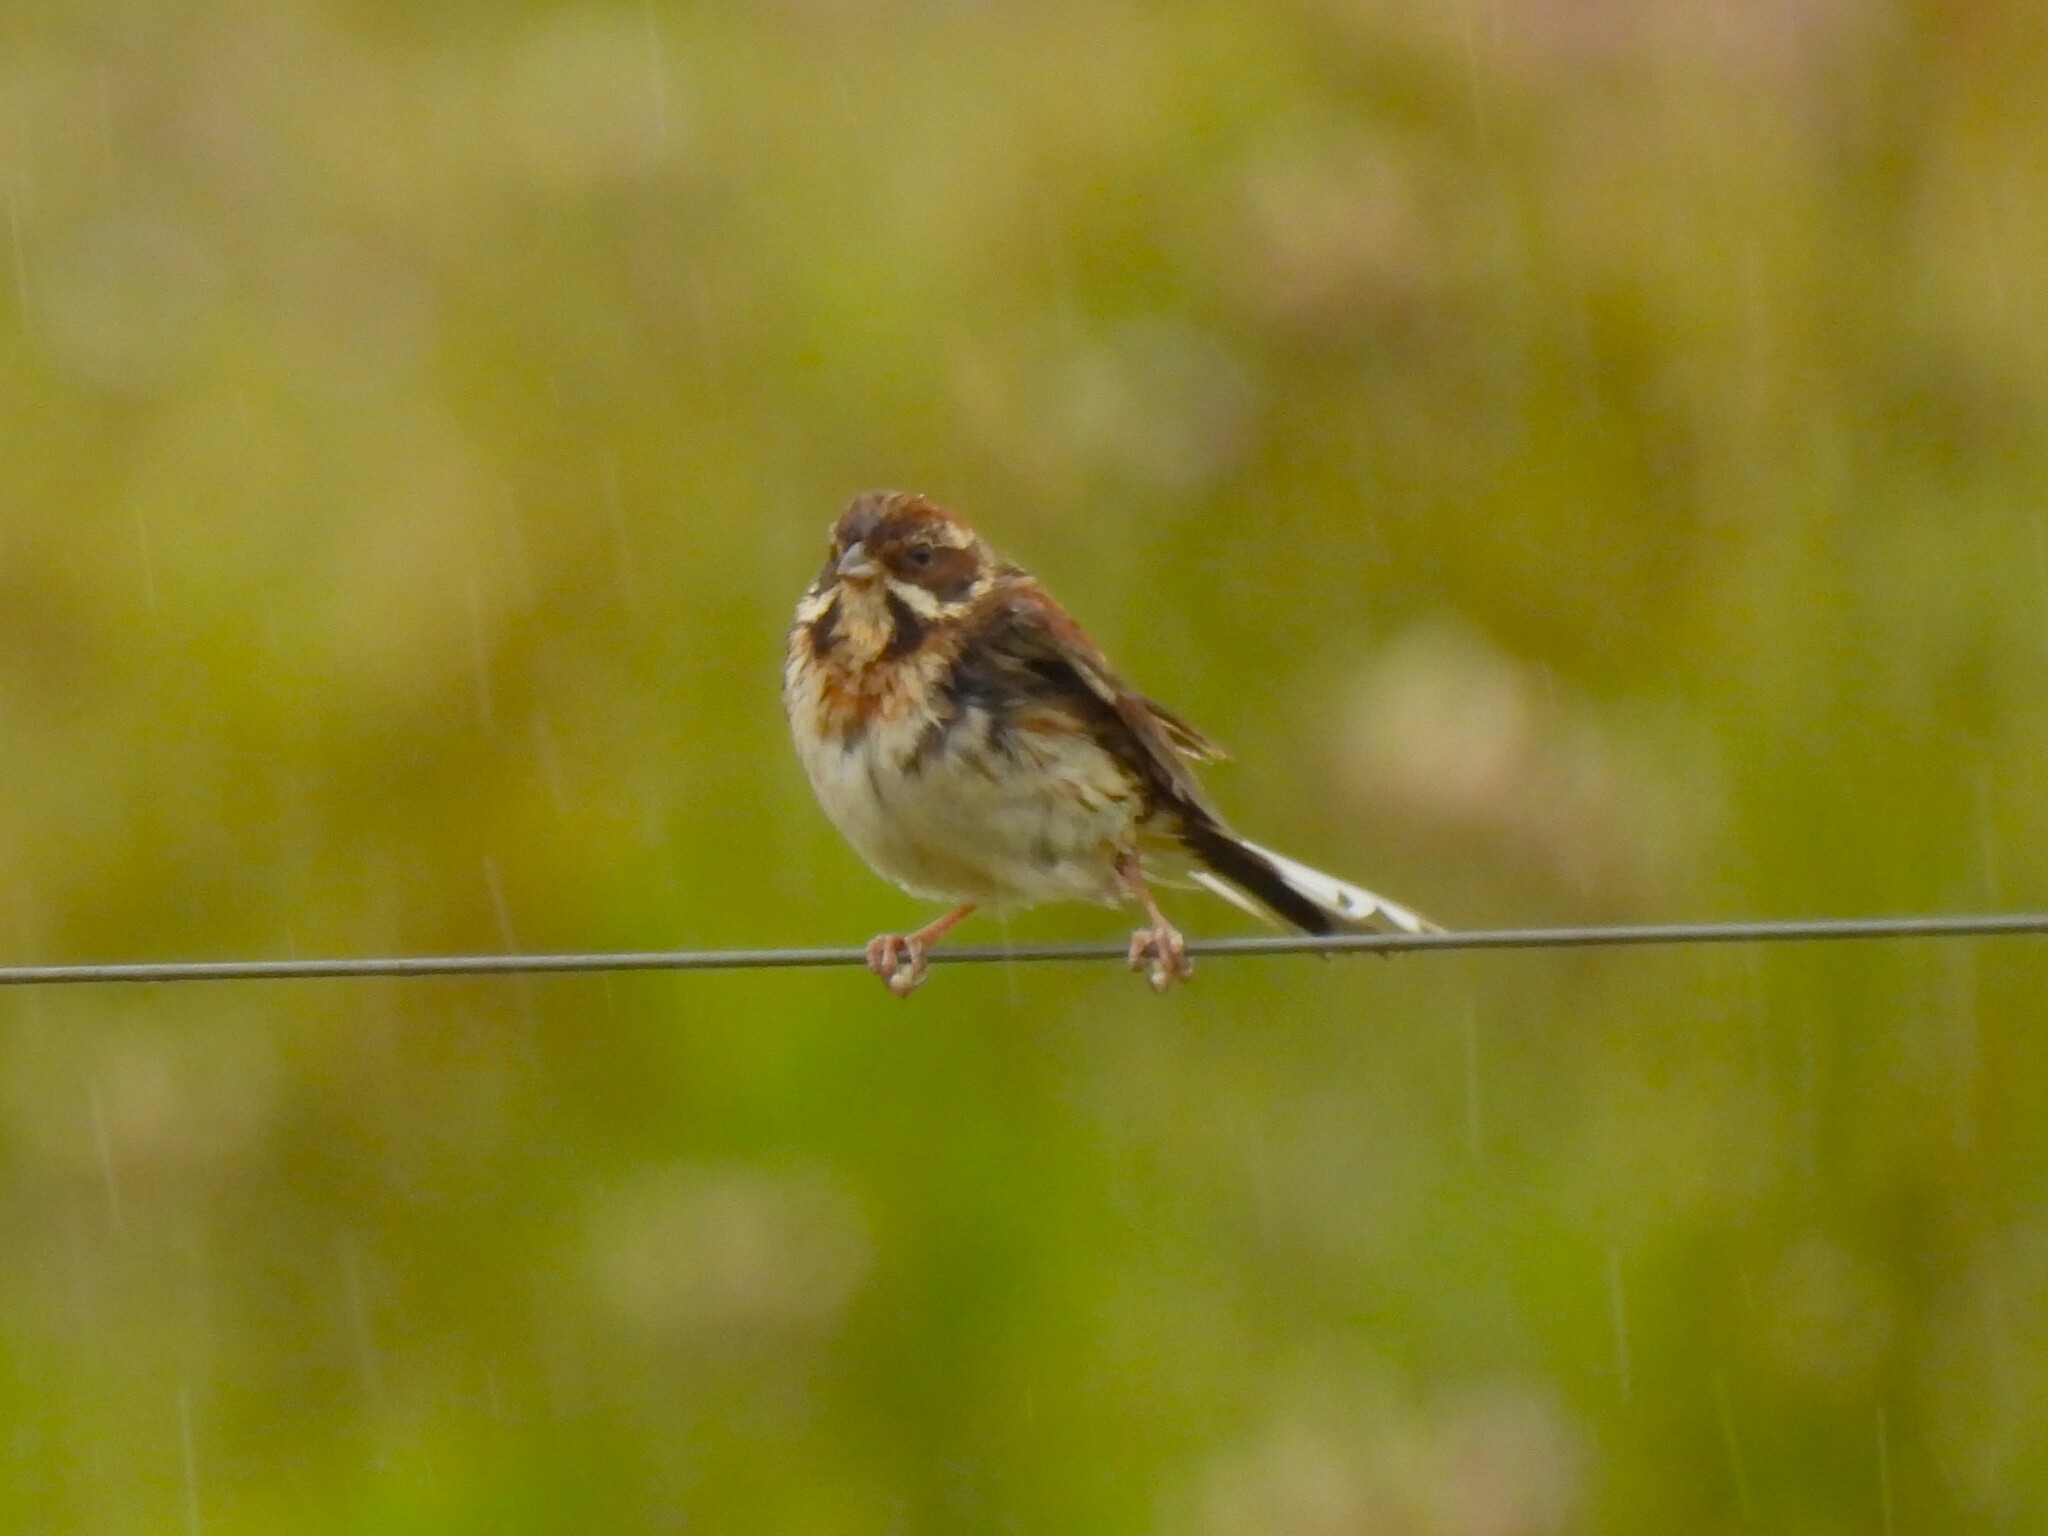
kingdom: Animalia
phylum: Chordata
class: Aves
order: Passeriformes
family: Emberizidae
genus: Emberiza
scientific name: Emberiza schoeniclus
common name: Reed bunting
